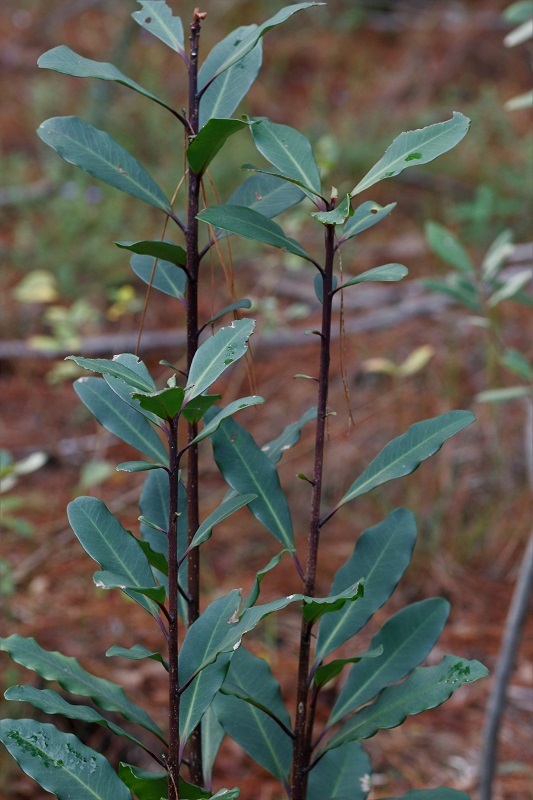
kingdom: Plantae
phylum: Tracheophyta
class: Magnoliopsida
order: Ericales
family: Primulaceae
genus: Myrsine
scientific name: Myrsine melanophloeos
